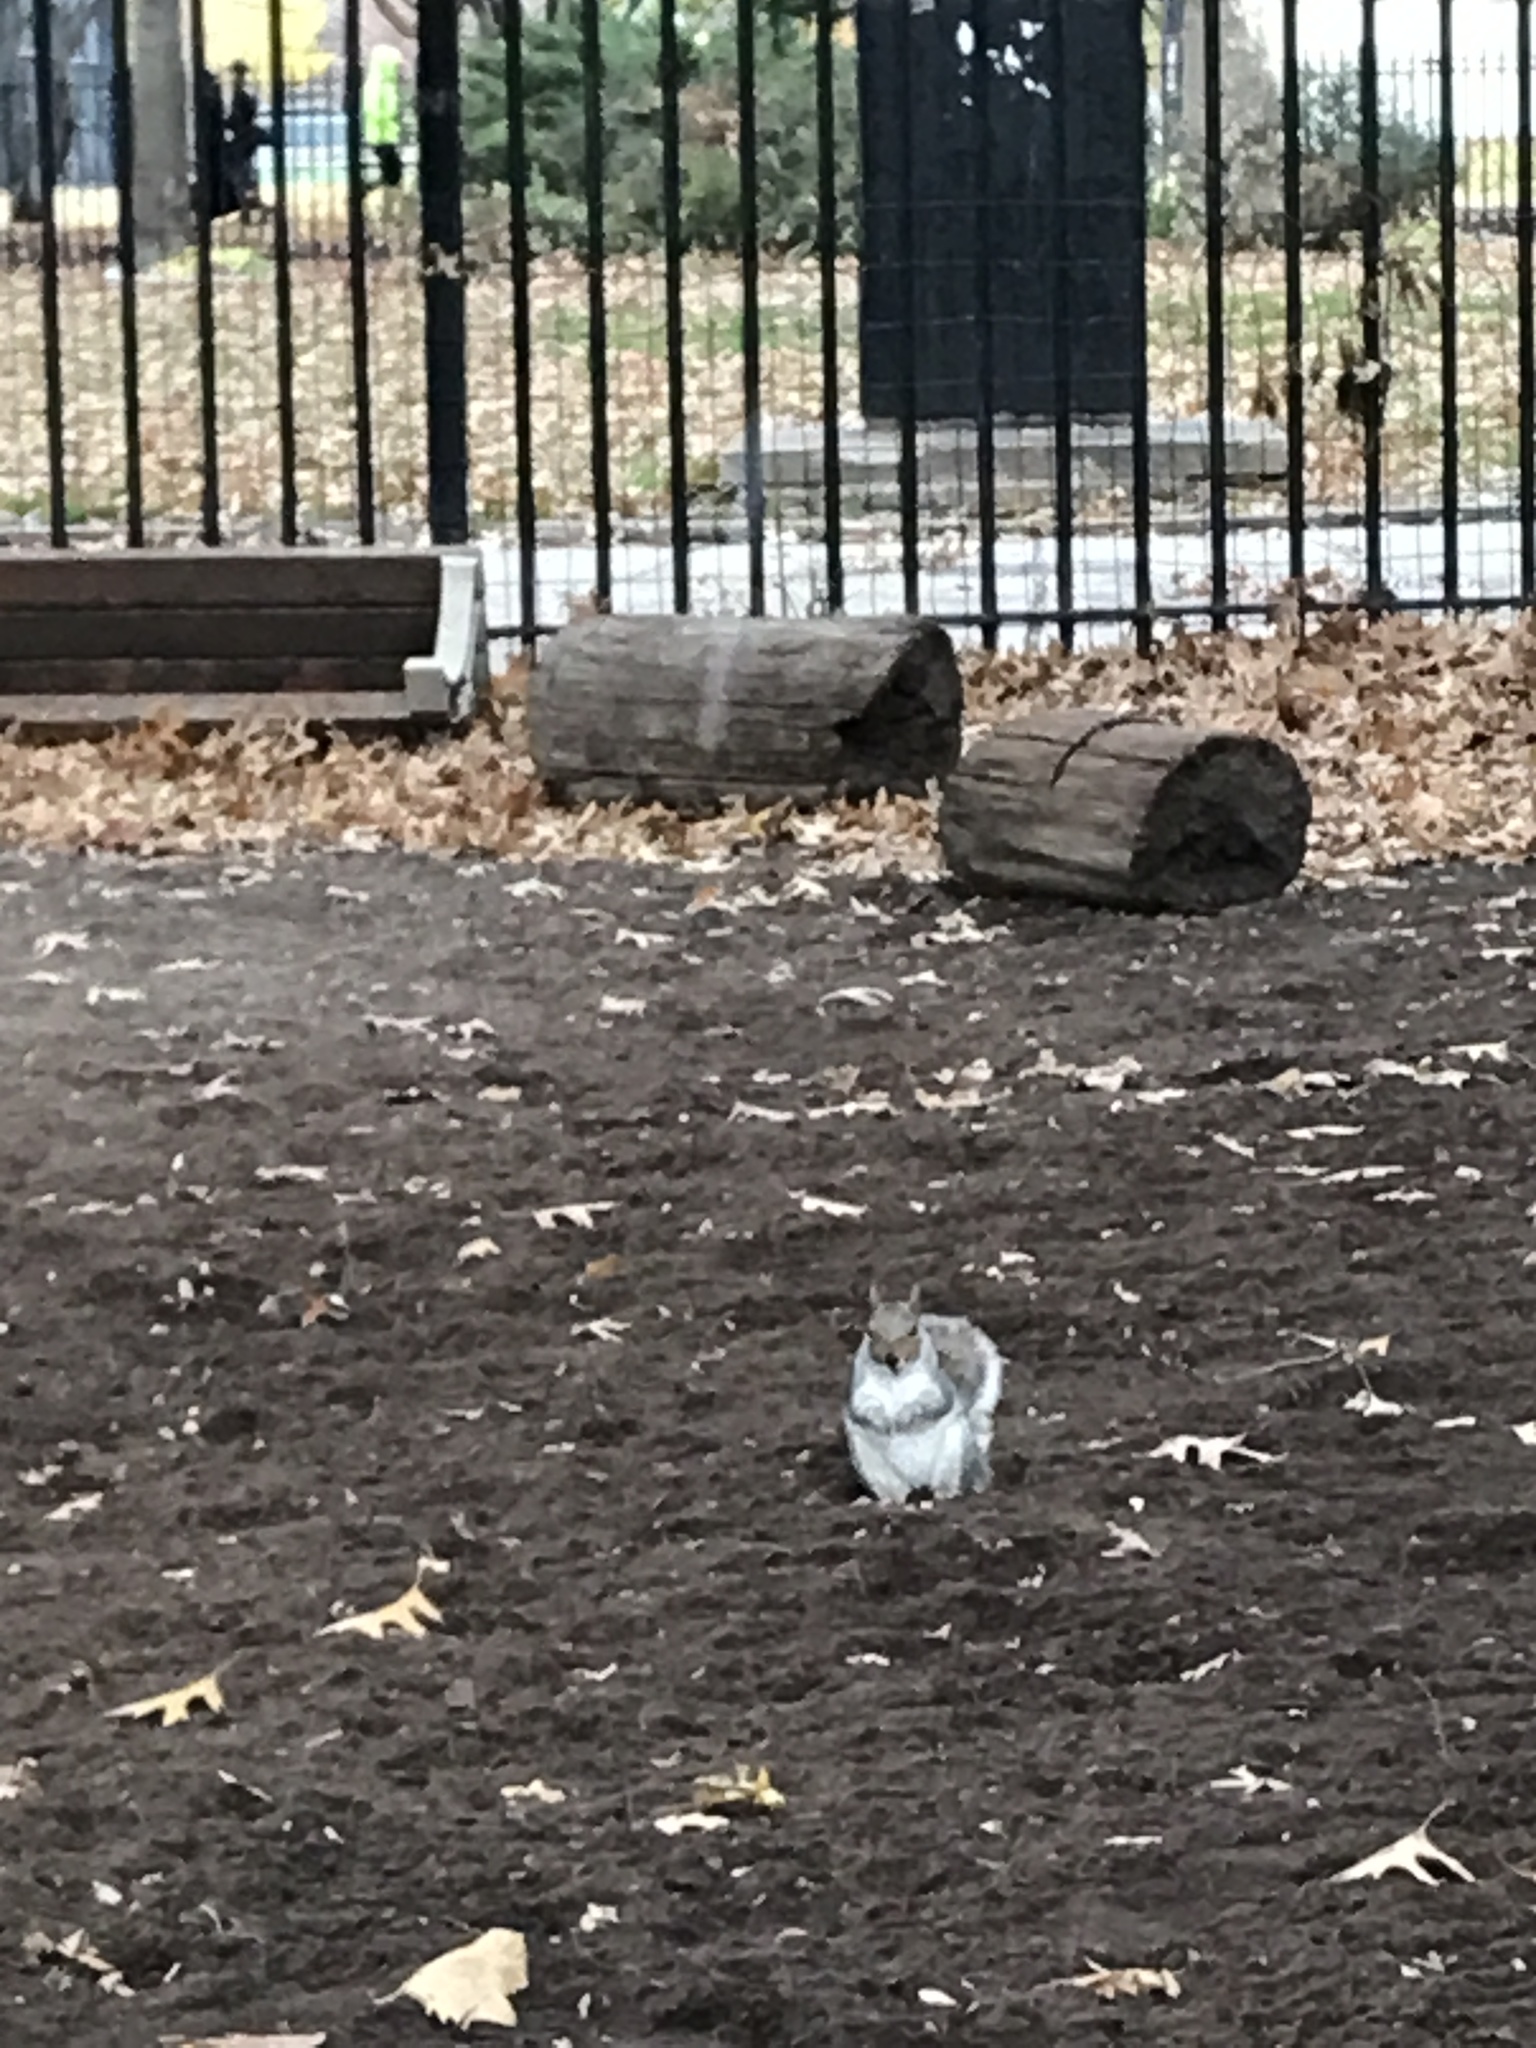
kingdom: Animalia
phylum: Chordata
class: Mammalia
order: Rodentia
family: Sciuridae
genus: Sciurus
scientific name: Sciurus carolinensis
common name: Eastern gray squirrel
